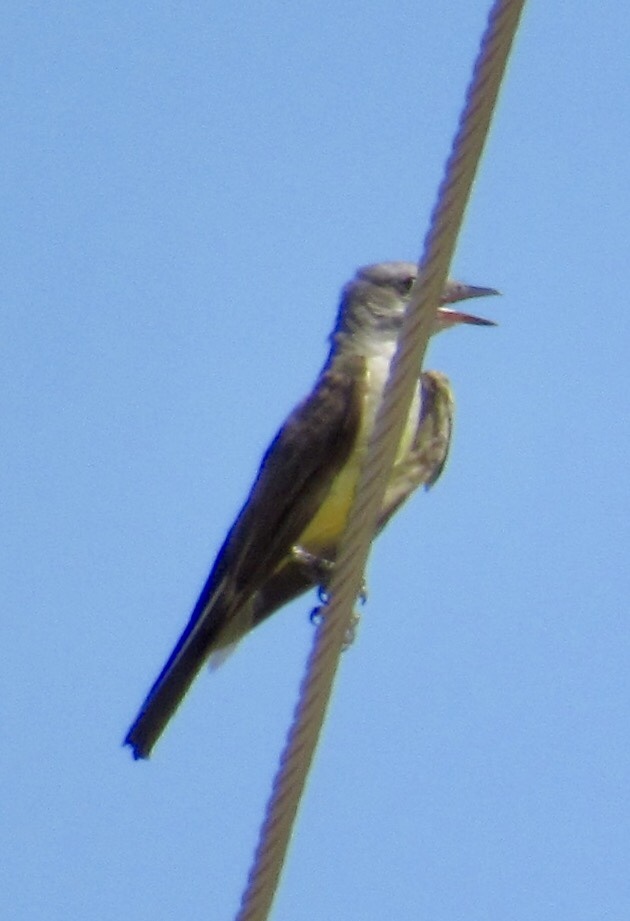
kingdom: Animalia
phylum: Chordata
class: Aves
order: Passeriformes
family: Tyrannidae
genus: Tyrannus
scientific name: Tyrannus verticalis
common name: Western kingbird
